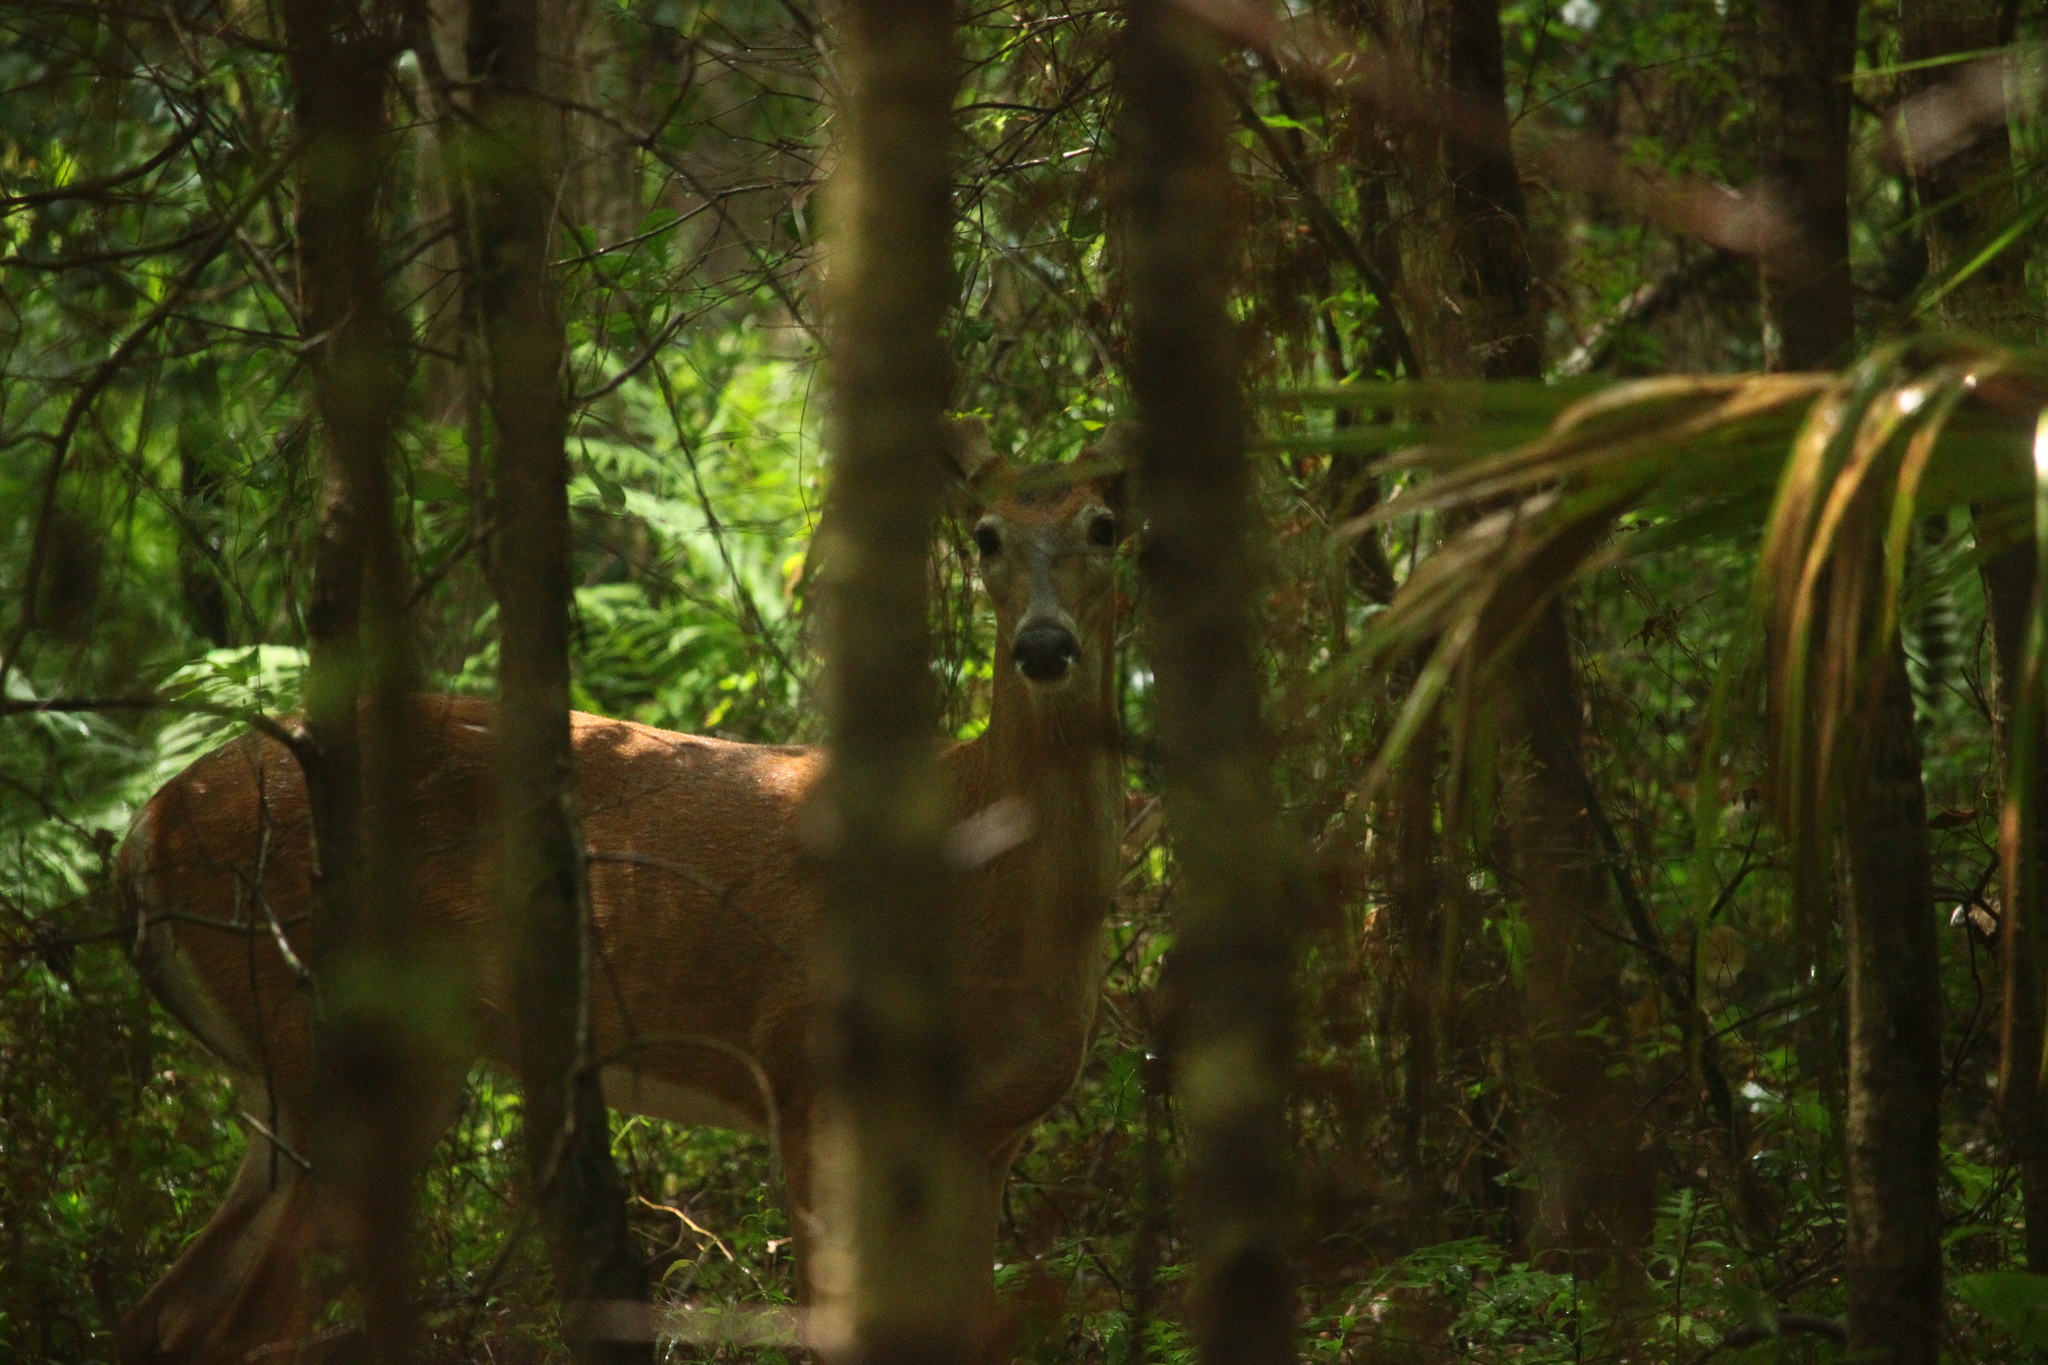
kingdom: Animalia
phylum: Chordata
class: Mammalia
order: Artiodactyla
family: Cervidae
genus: Odocoileus
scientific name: Odocoileus virginianus
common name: White-tailed deer
